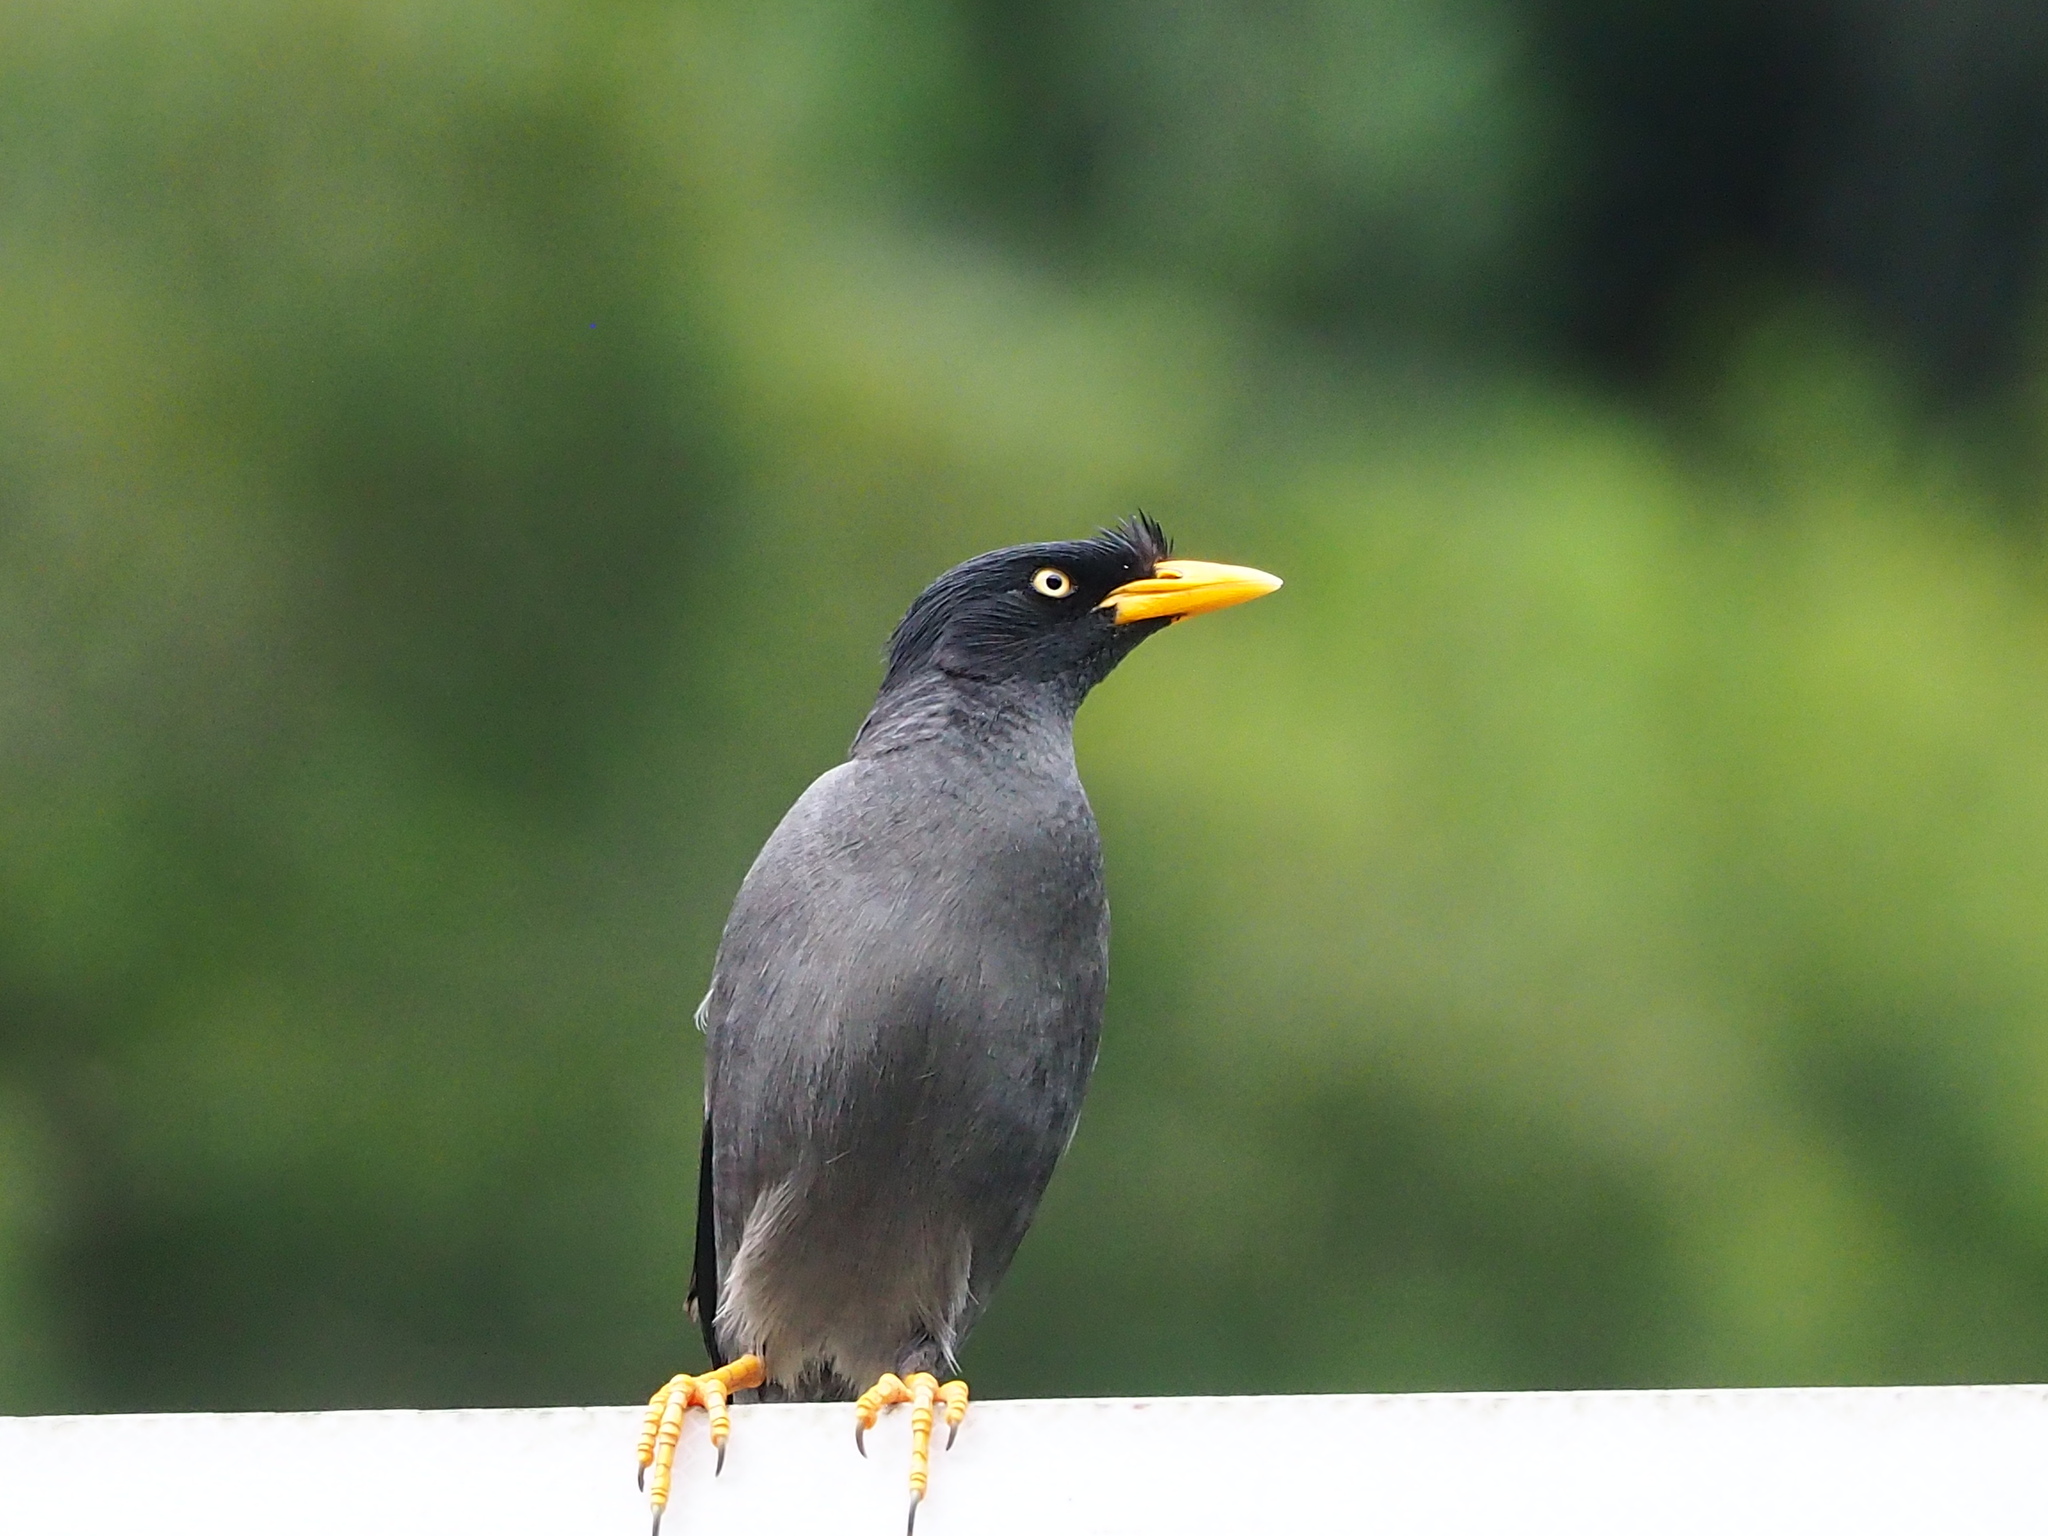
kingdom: Animalia
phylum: Chordata
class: Aves
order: Passeriformes
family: Sturnidae
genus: Acridotheres
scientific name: Acridotheres javanicus
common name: Javan myna
